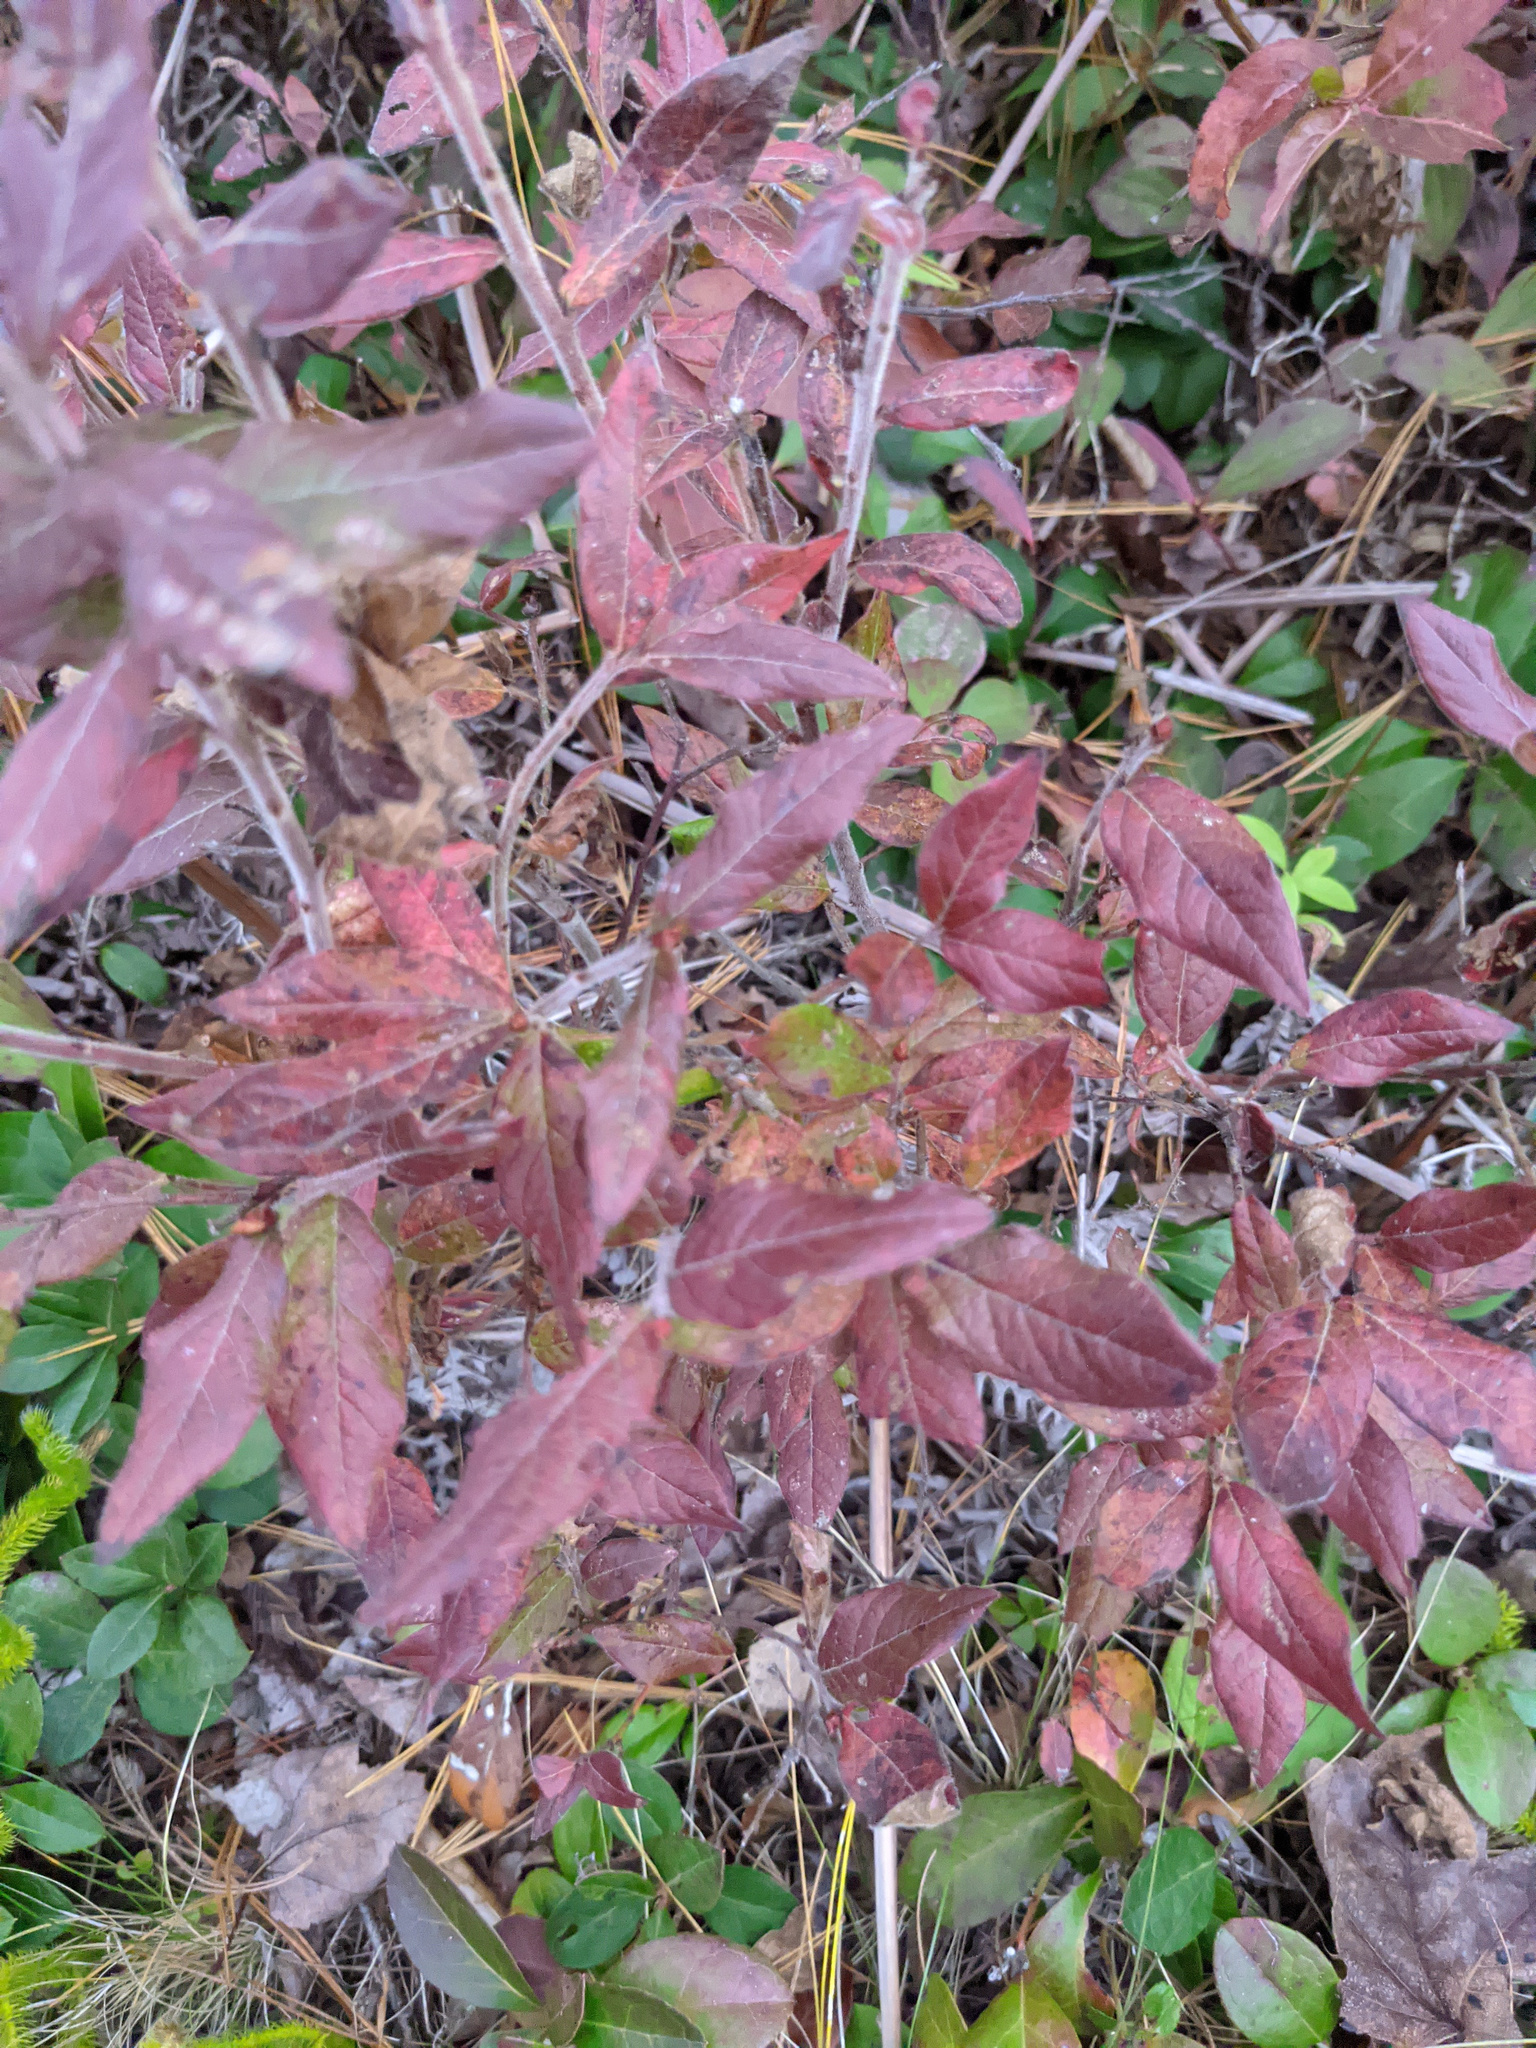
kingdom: Plantae
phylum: Tracheophyta
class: Magnoliopsida
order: Ericales
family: Ericaceae
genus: Vaccinium
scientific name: Vaccinium myrtilloides
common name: Canada blueberry
